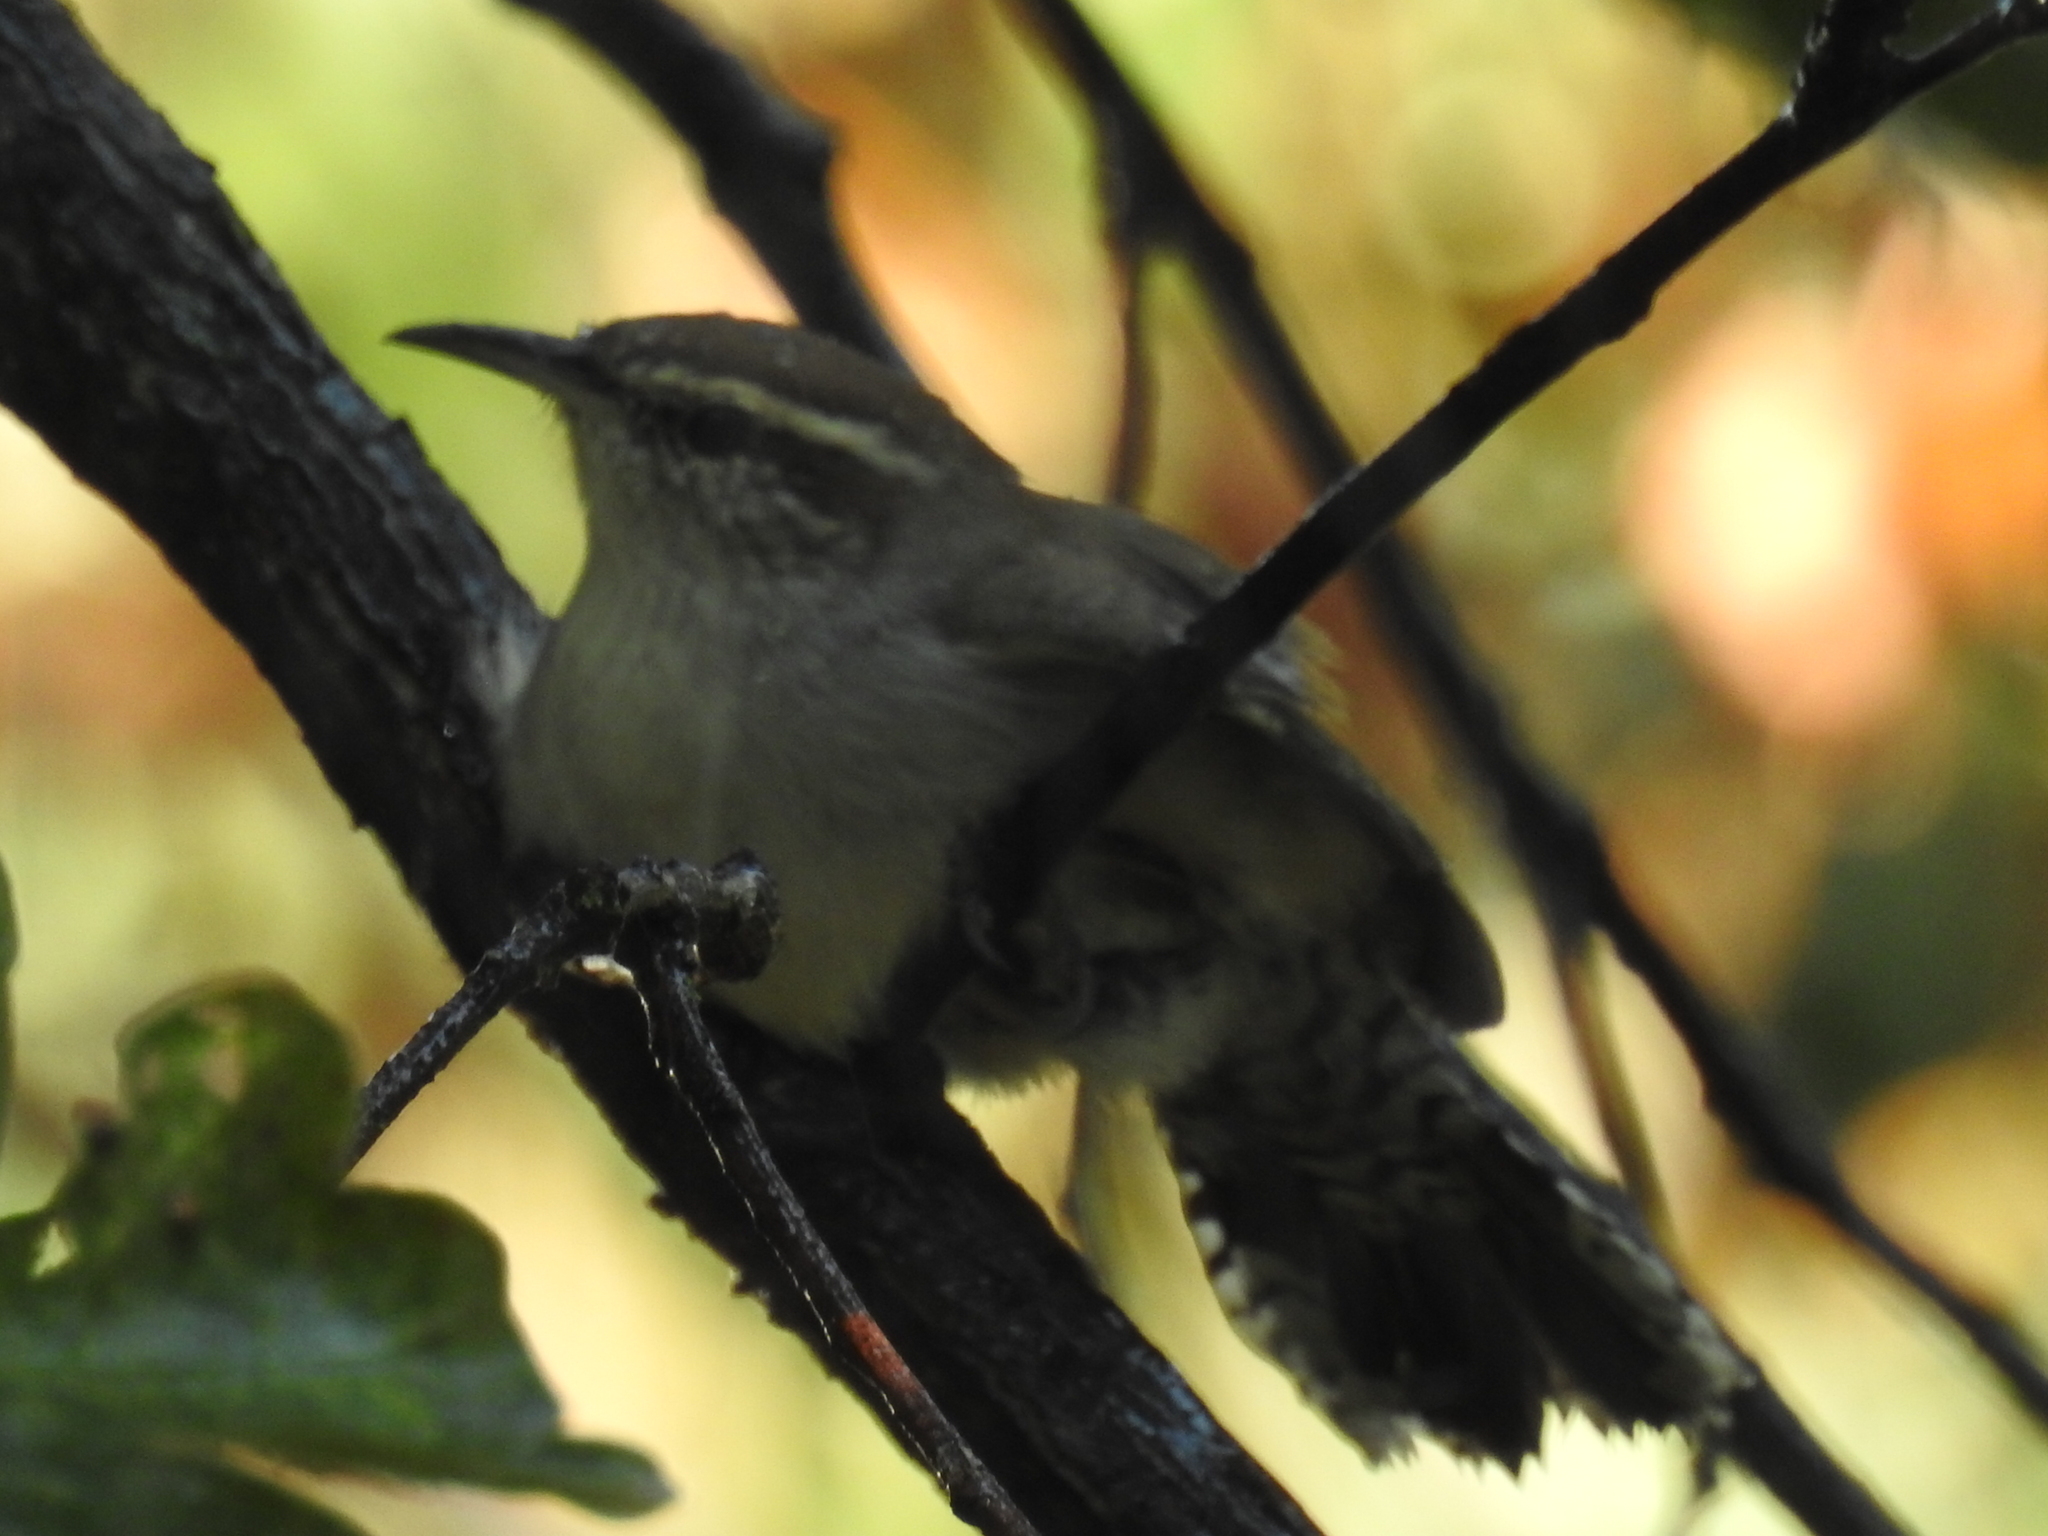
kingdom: Animalia
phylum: Chordata
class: Aves
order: Passeriformes
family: Troglodytidae
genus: Thryomanes
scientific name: Thryomanes bewickii
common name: Bewick's wren
